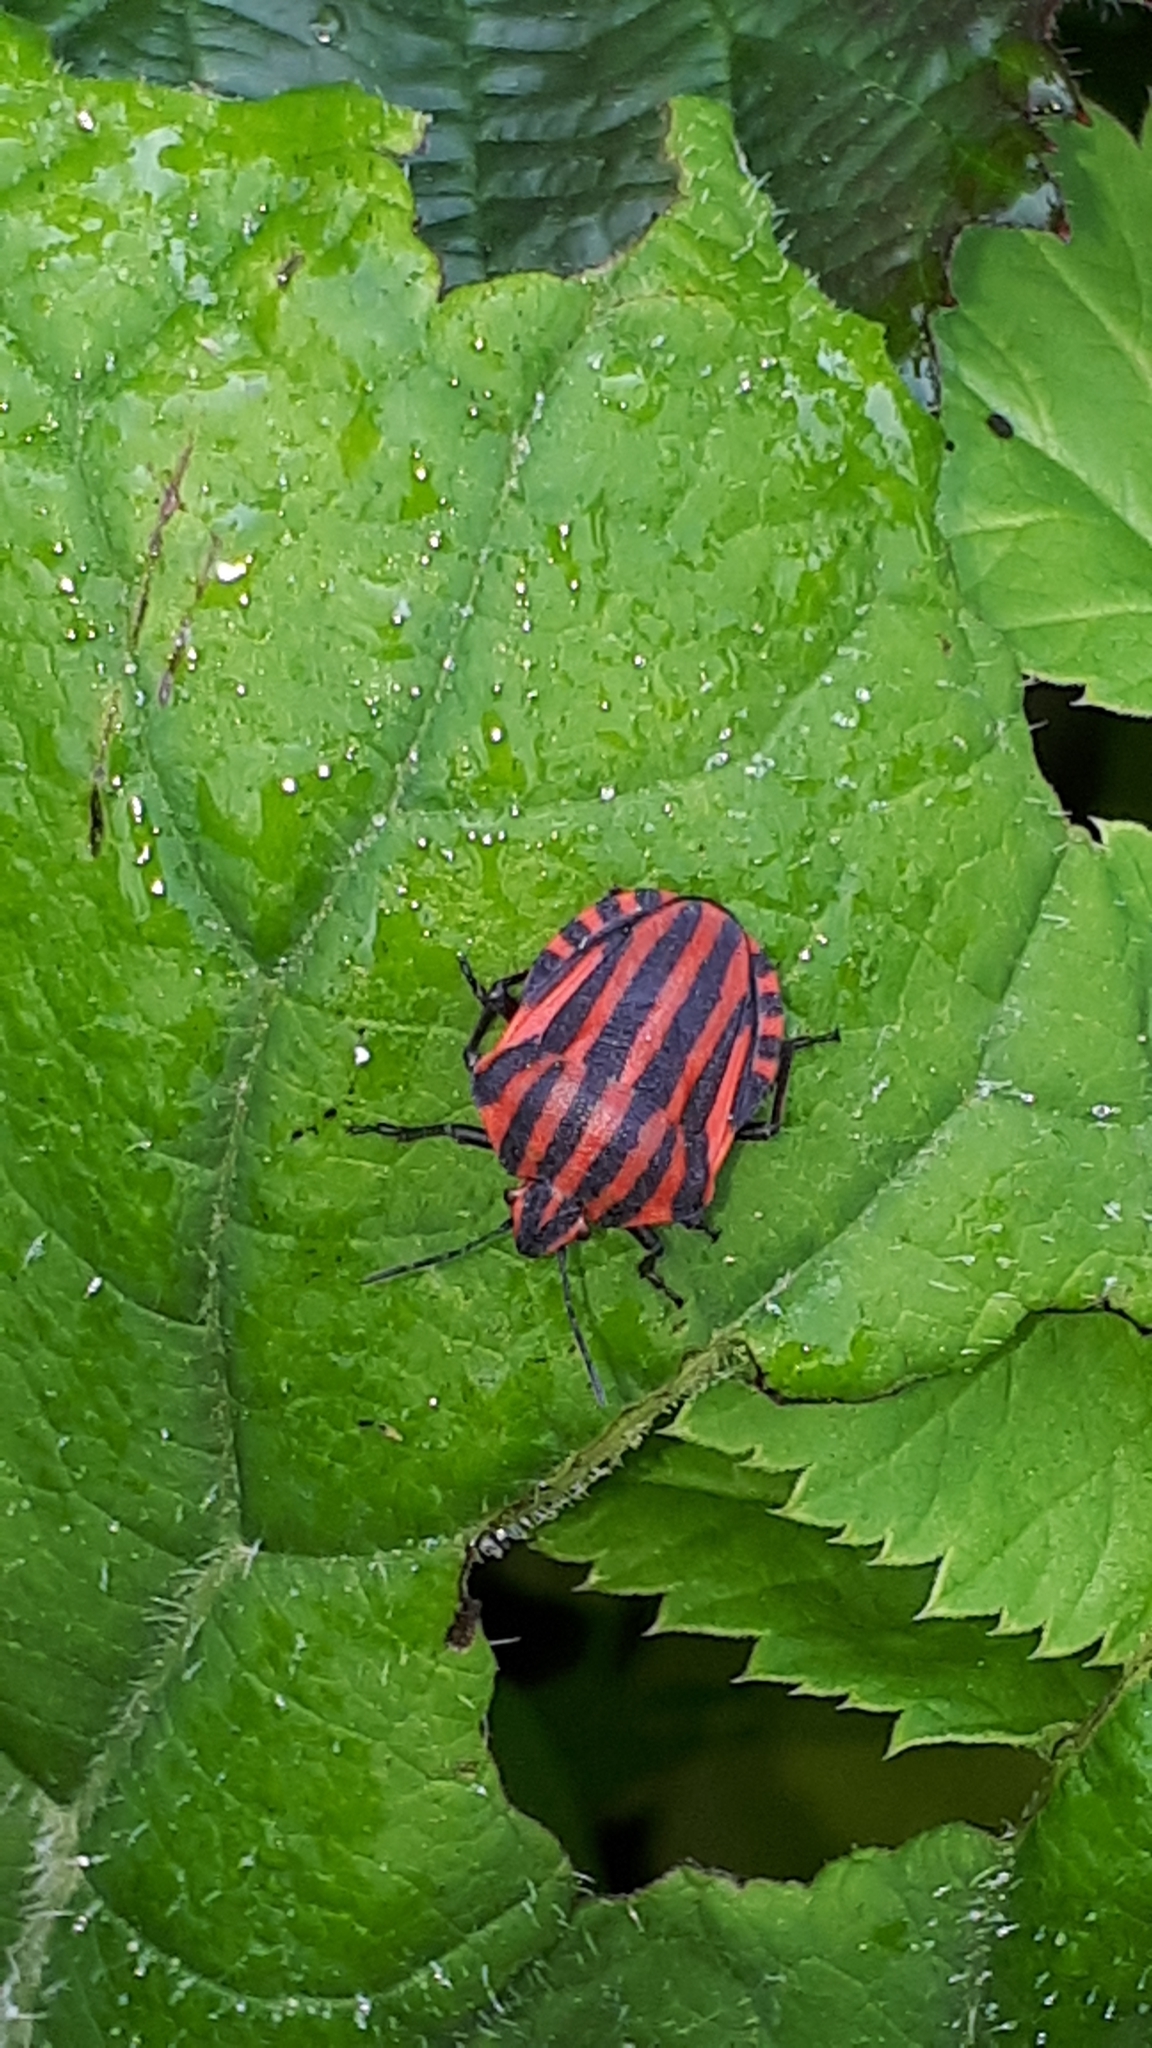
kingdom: Animalia
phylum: Arthropoda
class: Insecta
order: Hemiptera
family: Pentatomidae
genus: Graphosoma
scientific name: Graphosoma italicum
